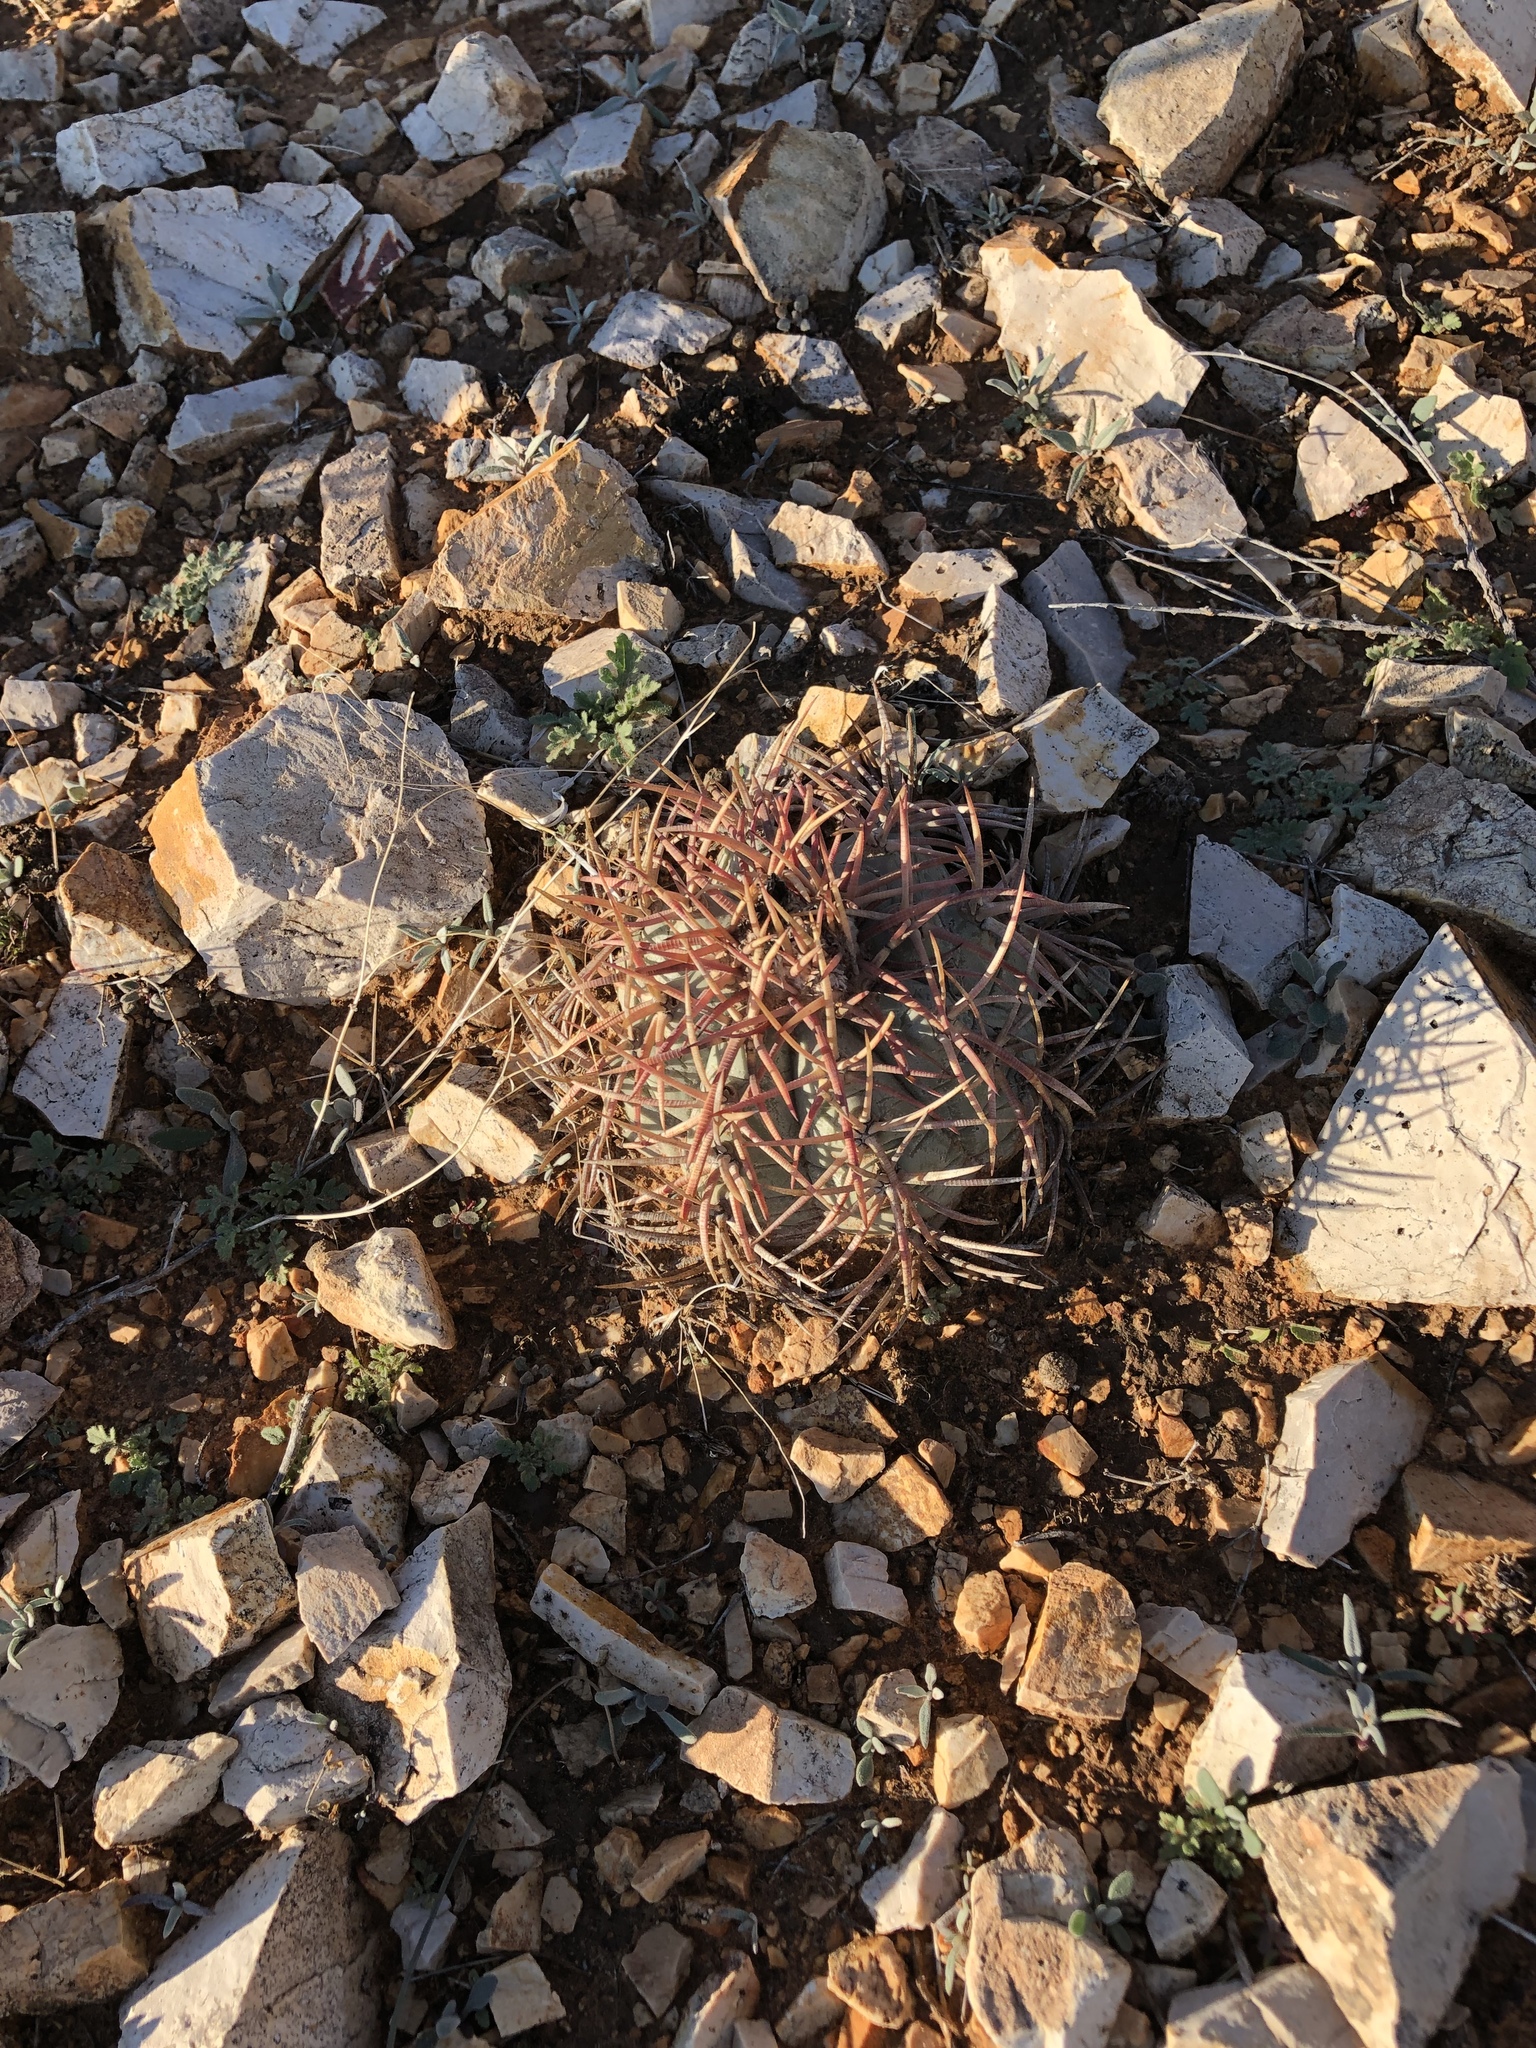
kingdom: Plantae
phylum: Tracheophyta
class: Magnoliopsida
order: Caryophyllales
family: Cactaceae
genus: Echinocactus
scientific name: Echinocactus horizonthalonius
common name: Devilshead
